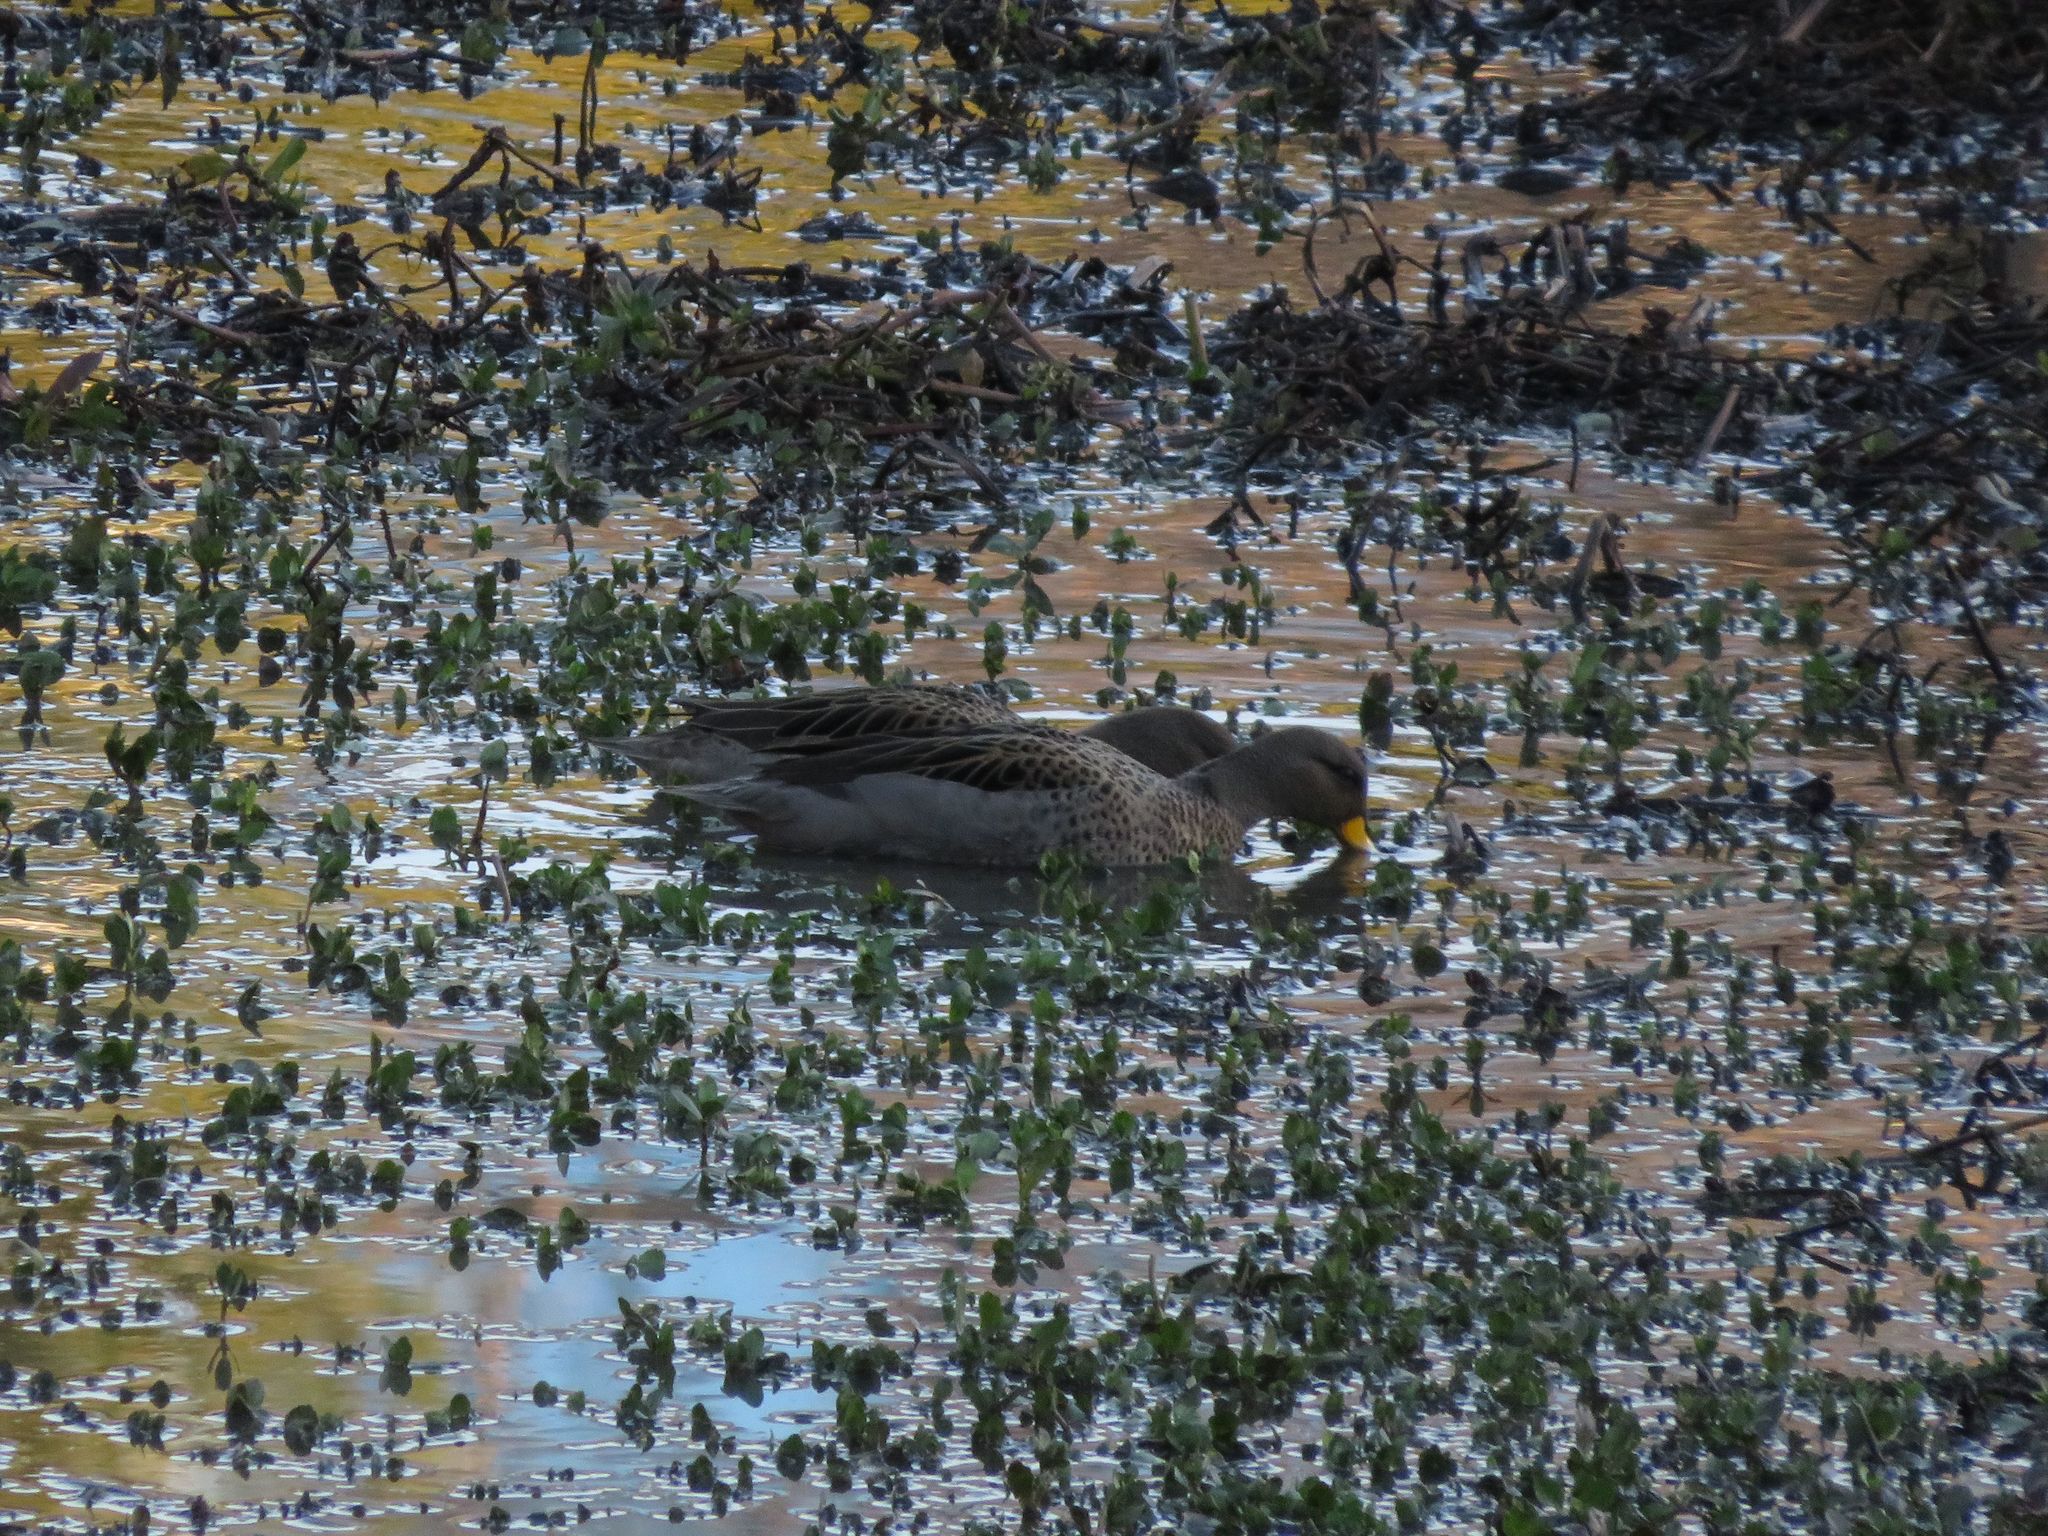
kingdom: Animalia
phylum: Chordata
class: Aves
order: Anseriformes
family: Anatidae
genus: Anas
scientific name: Anas flavirostris
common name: Yellow-billed teal
